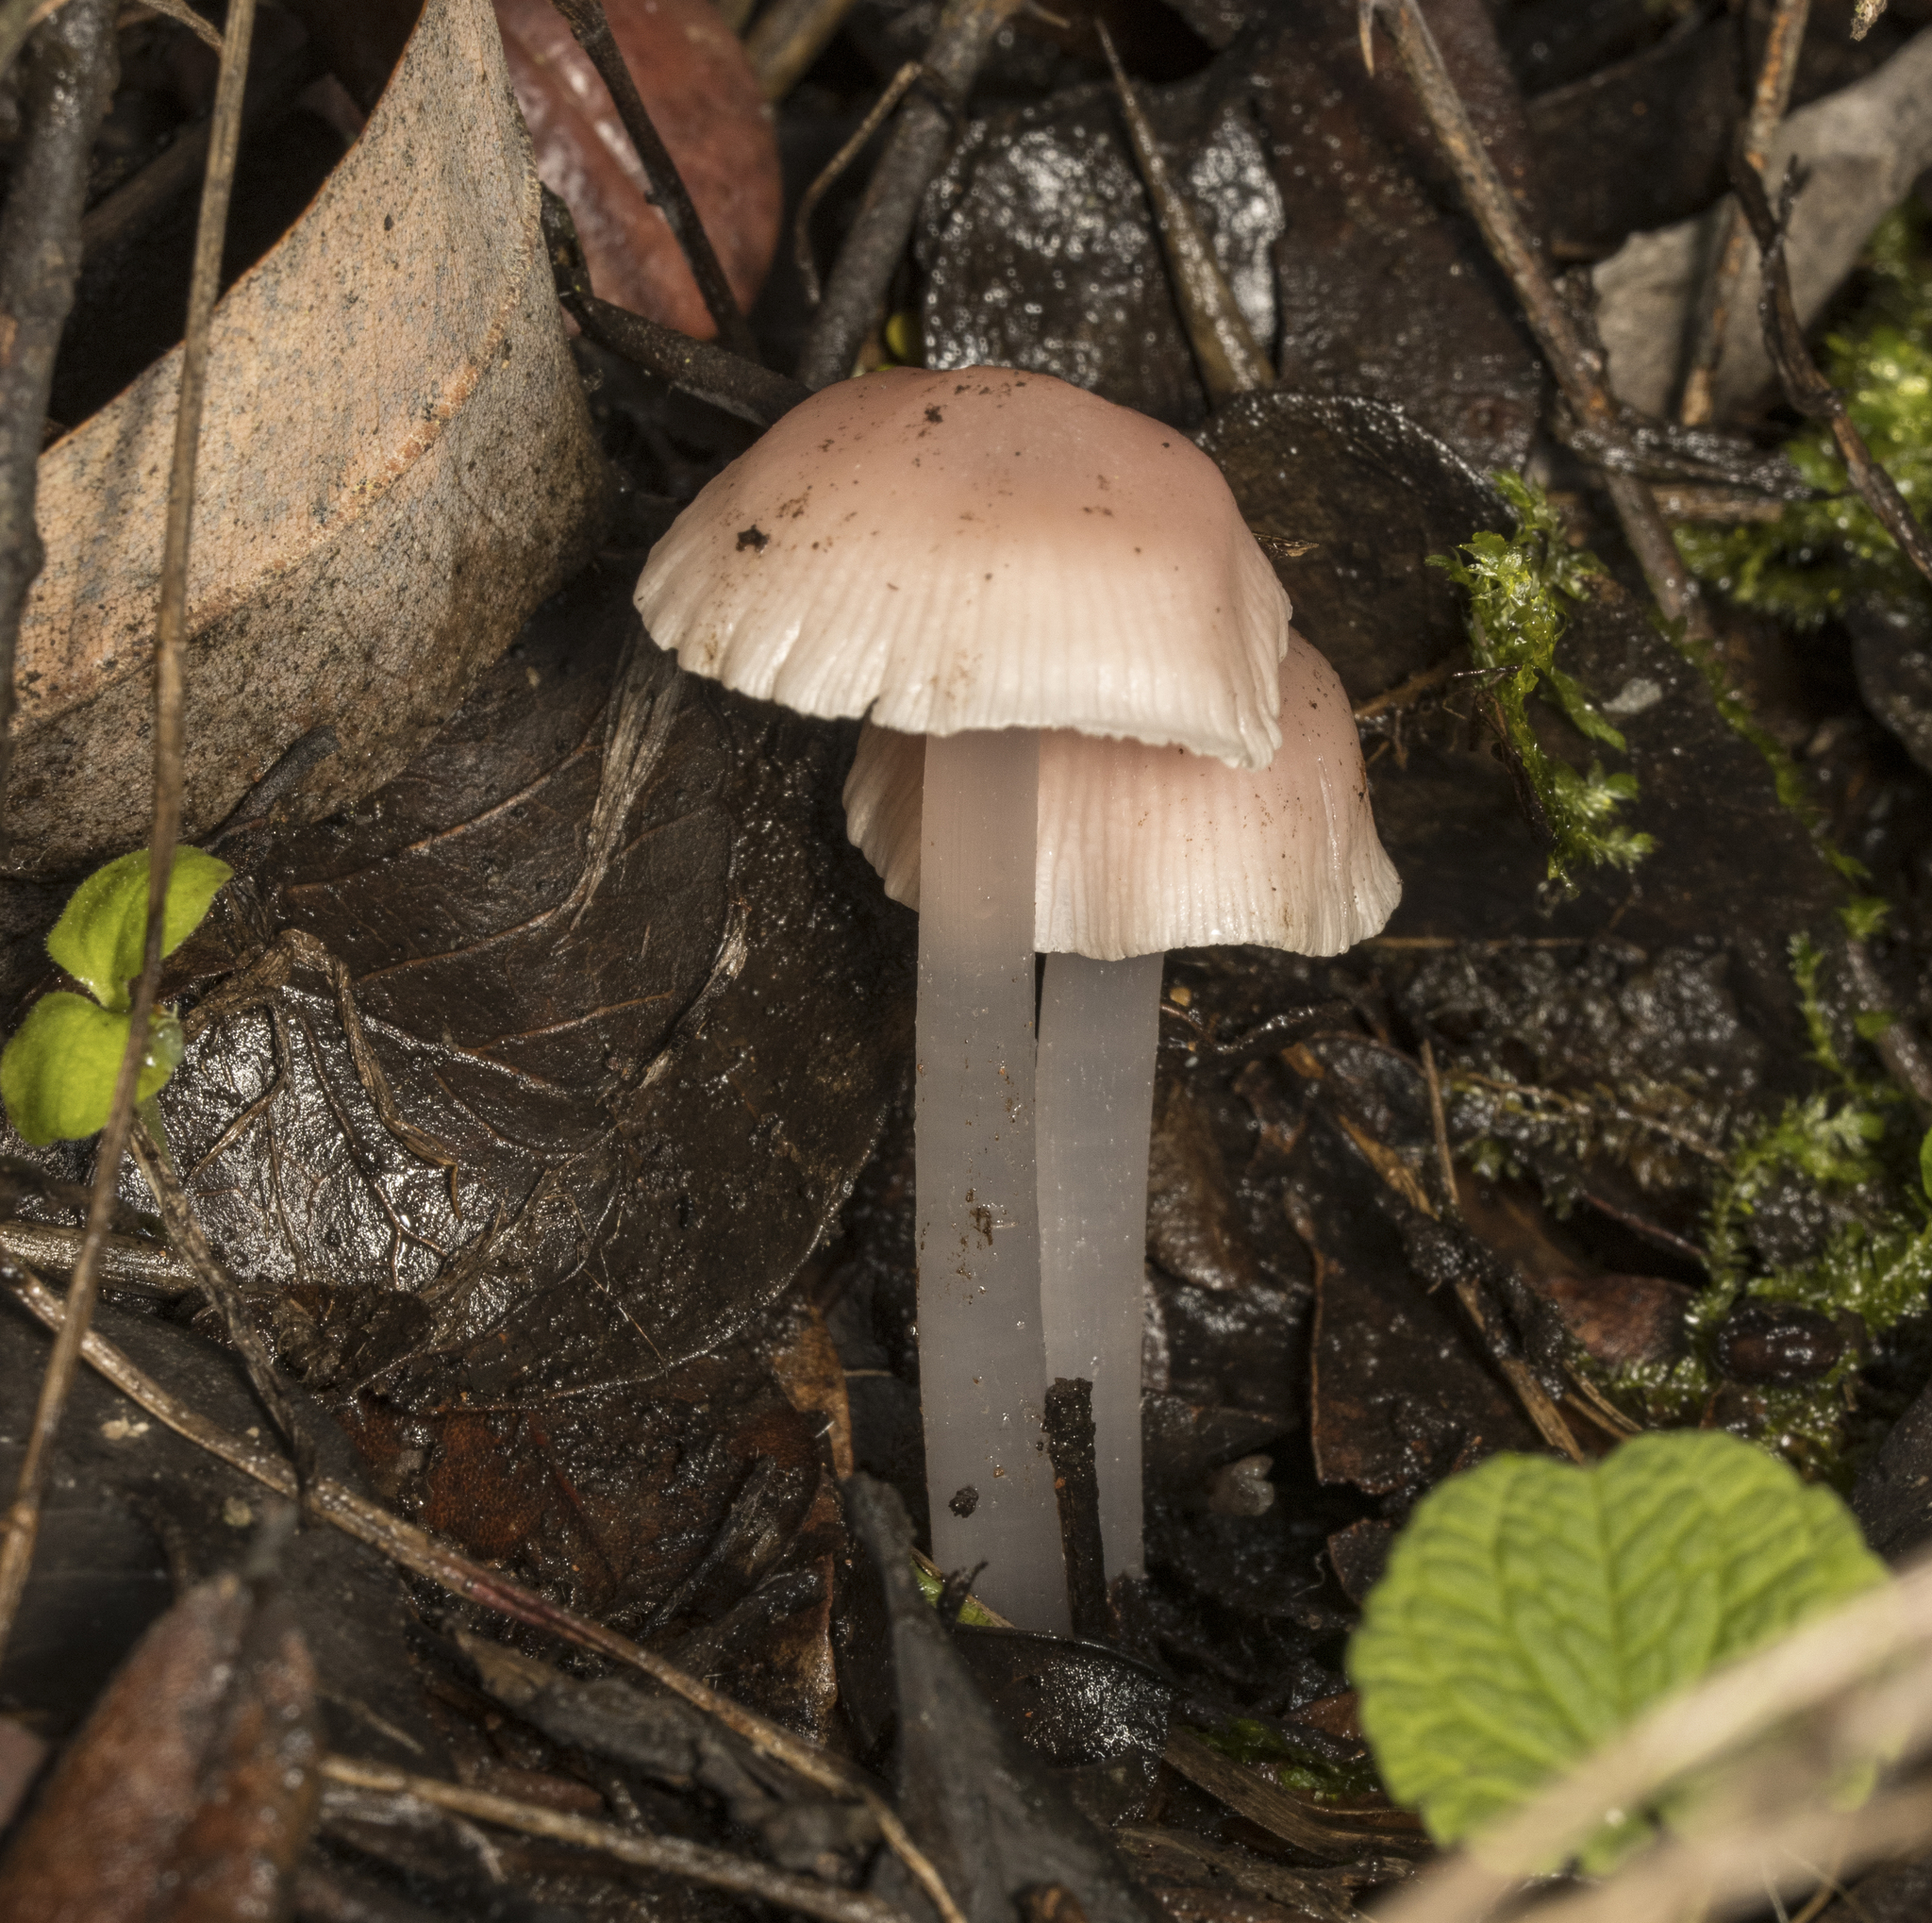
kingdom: Fungi
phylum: Basidiomycota
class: Agaricomycetes
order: Agaricales
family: Mycenaceae
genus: Mycena
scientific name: Mycena pura
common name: Lilac bonnet
